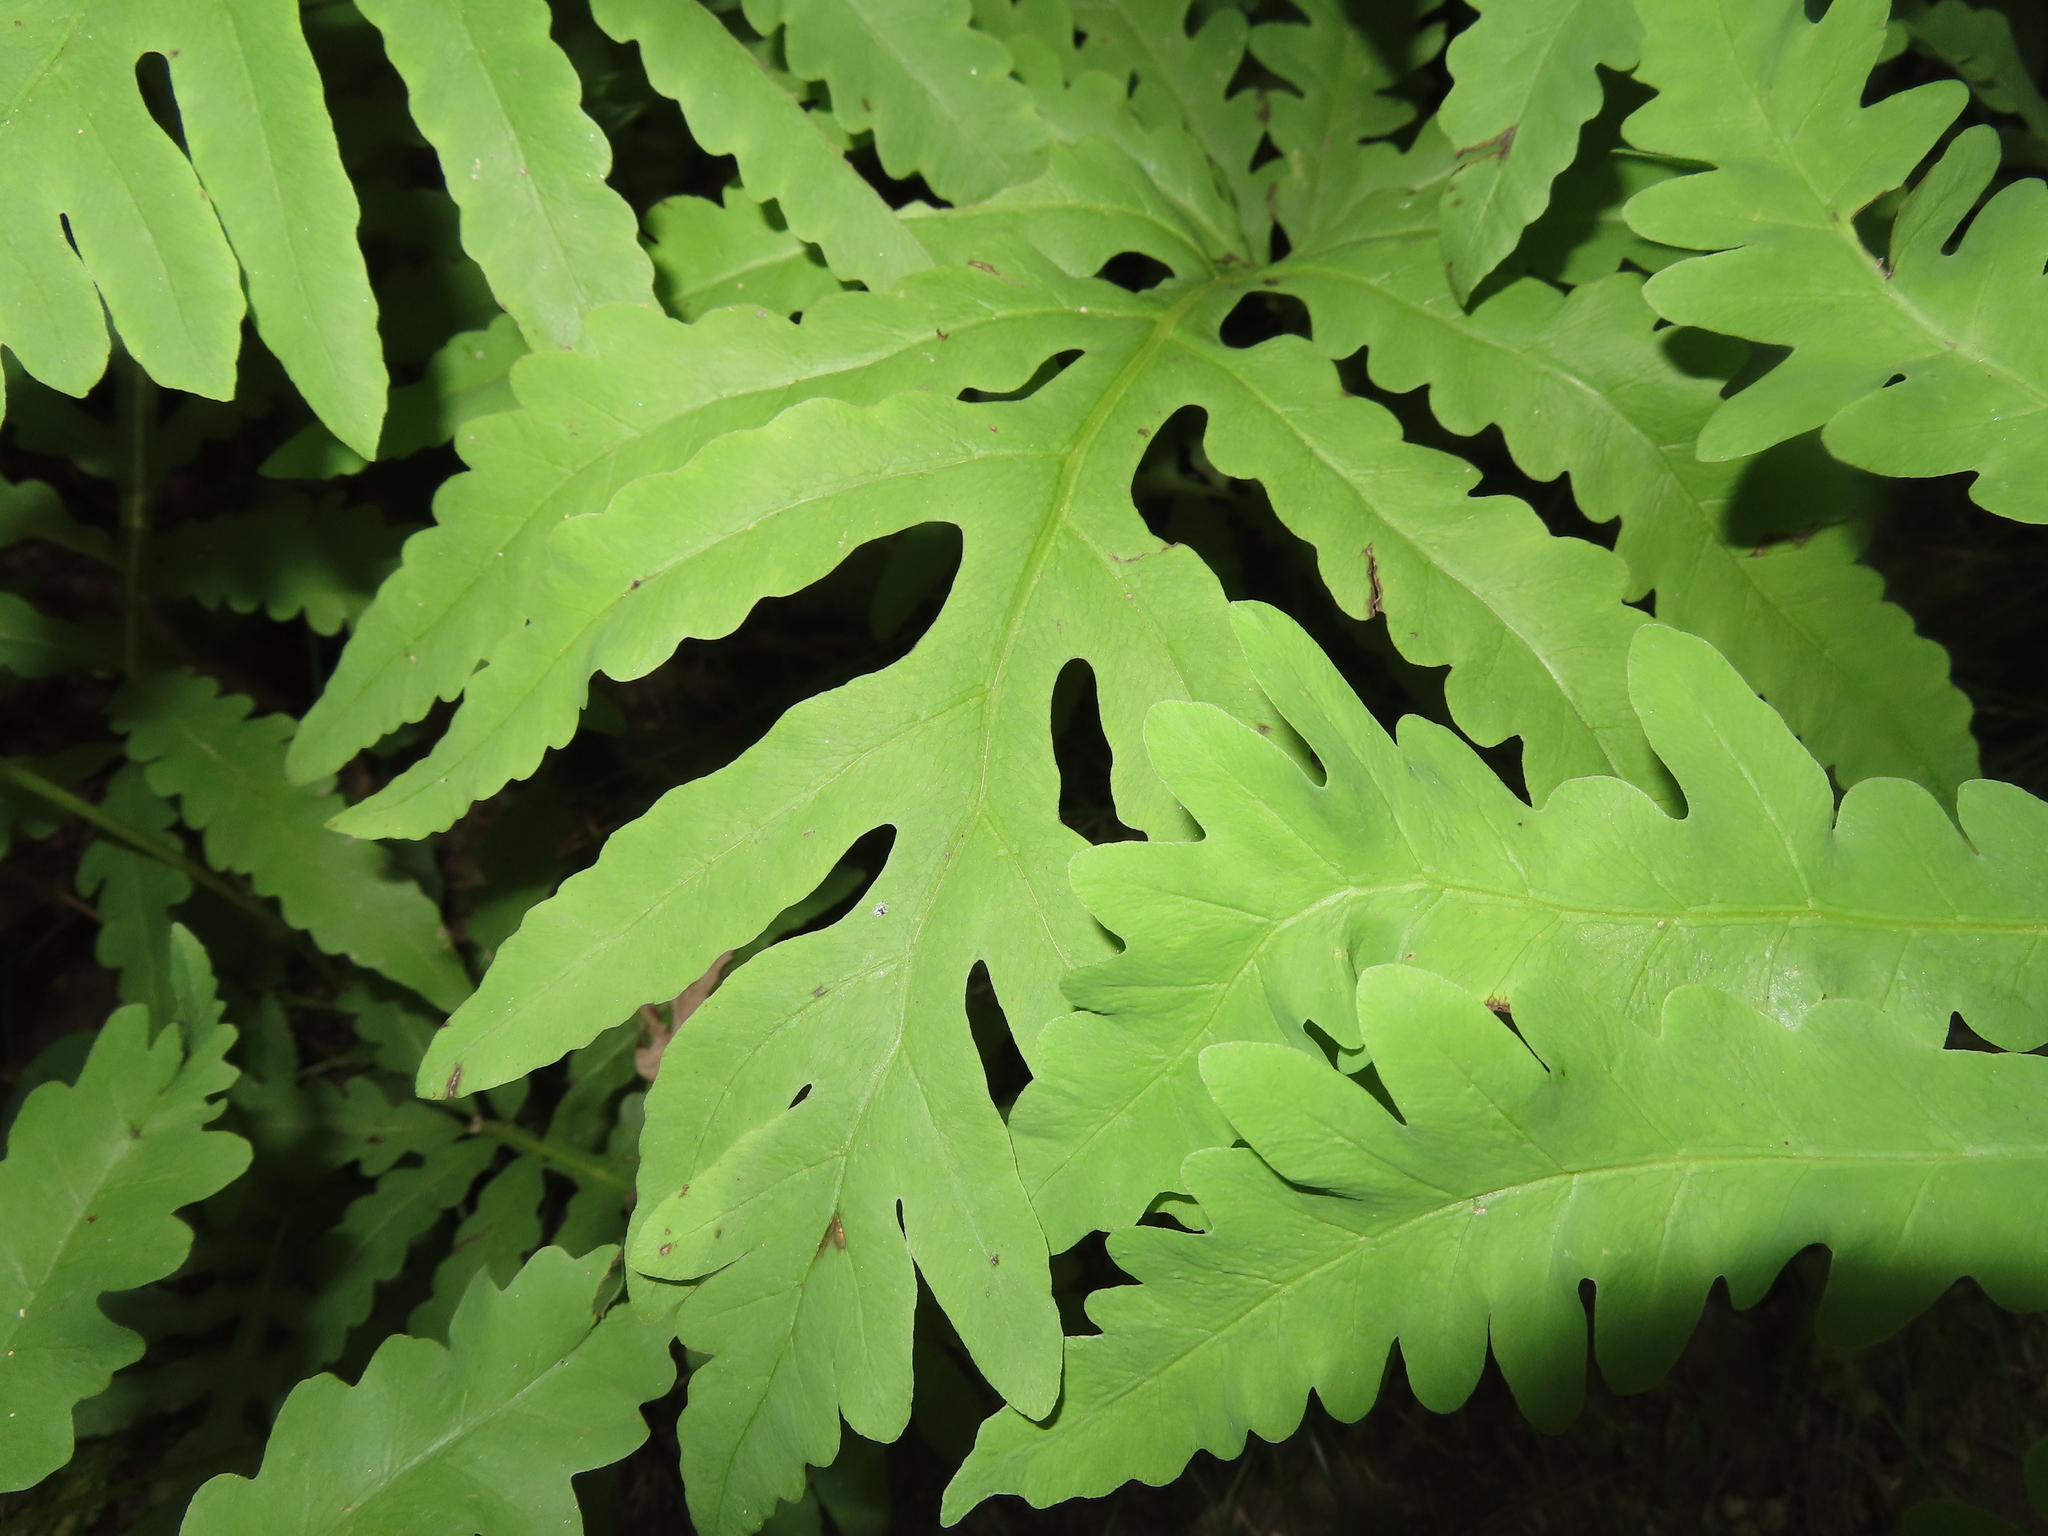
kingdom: Plantae
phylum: Tracheophyta
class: Polypodiopsida
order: Polypodiales
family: Onocleaceae
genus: Onoclea
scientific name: Onoclea sensibilis
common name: Sensitive fern
